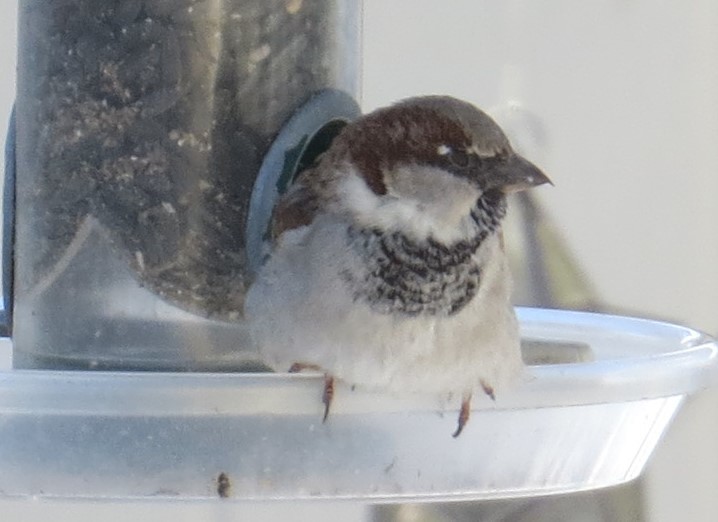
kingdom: Animalia
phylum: Chordata
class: Aves
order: Passeriformes
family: Passeridae
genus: Passer
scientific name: Passer domesticus
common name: House sparrow
